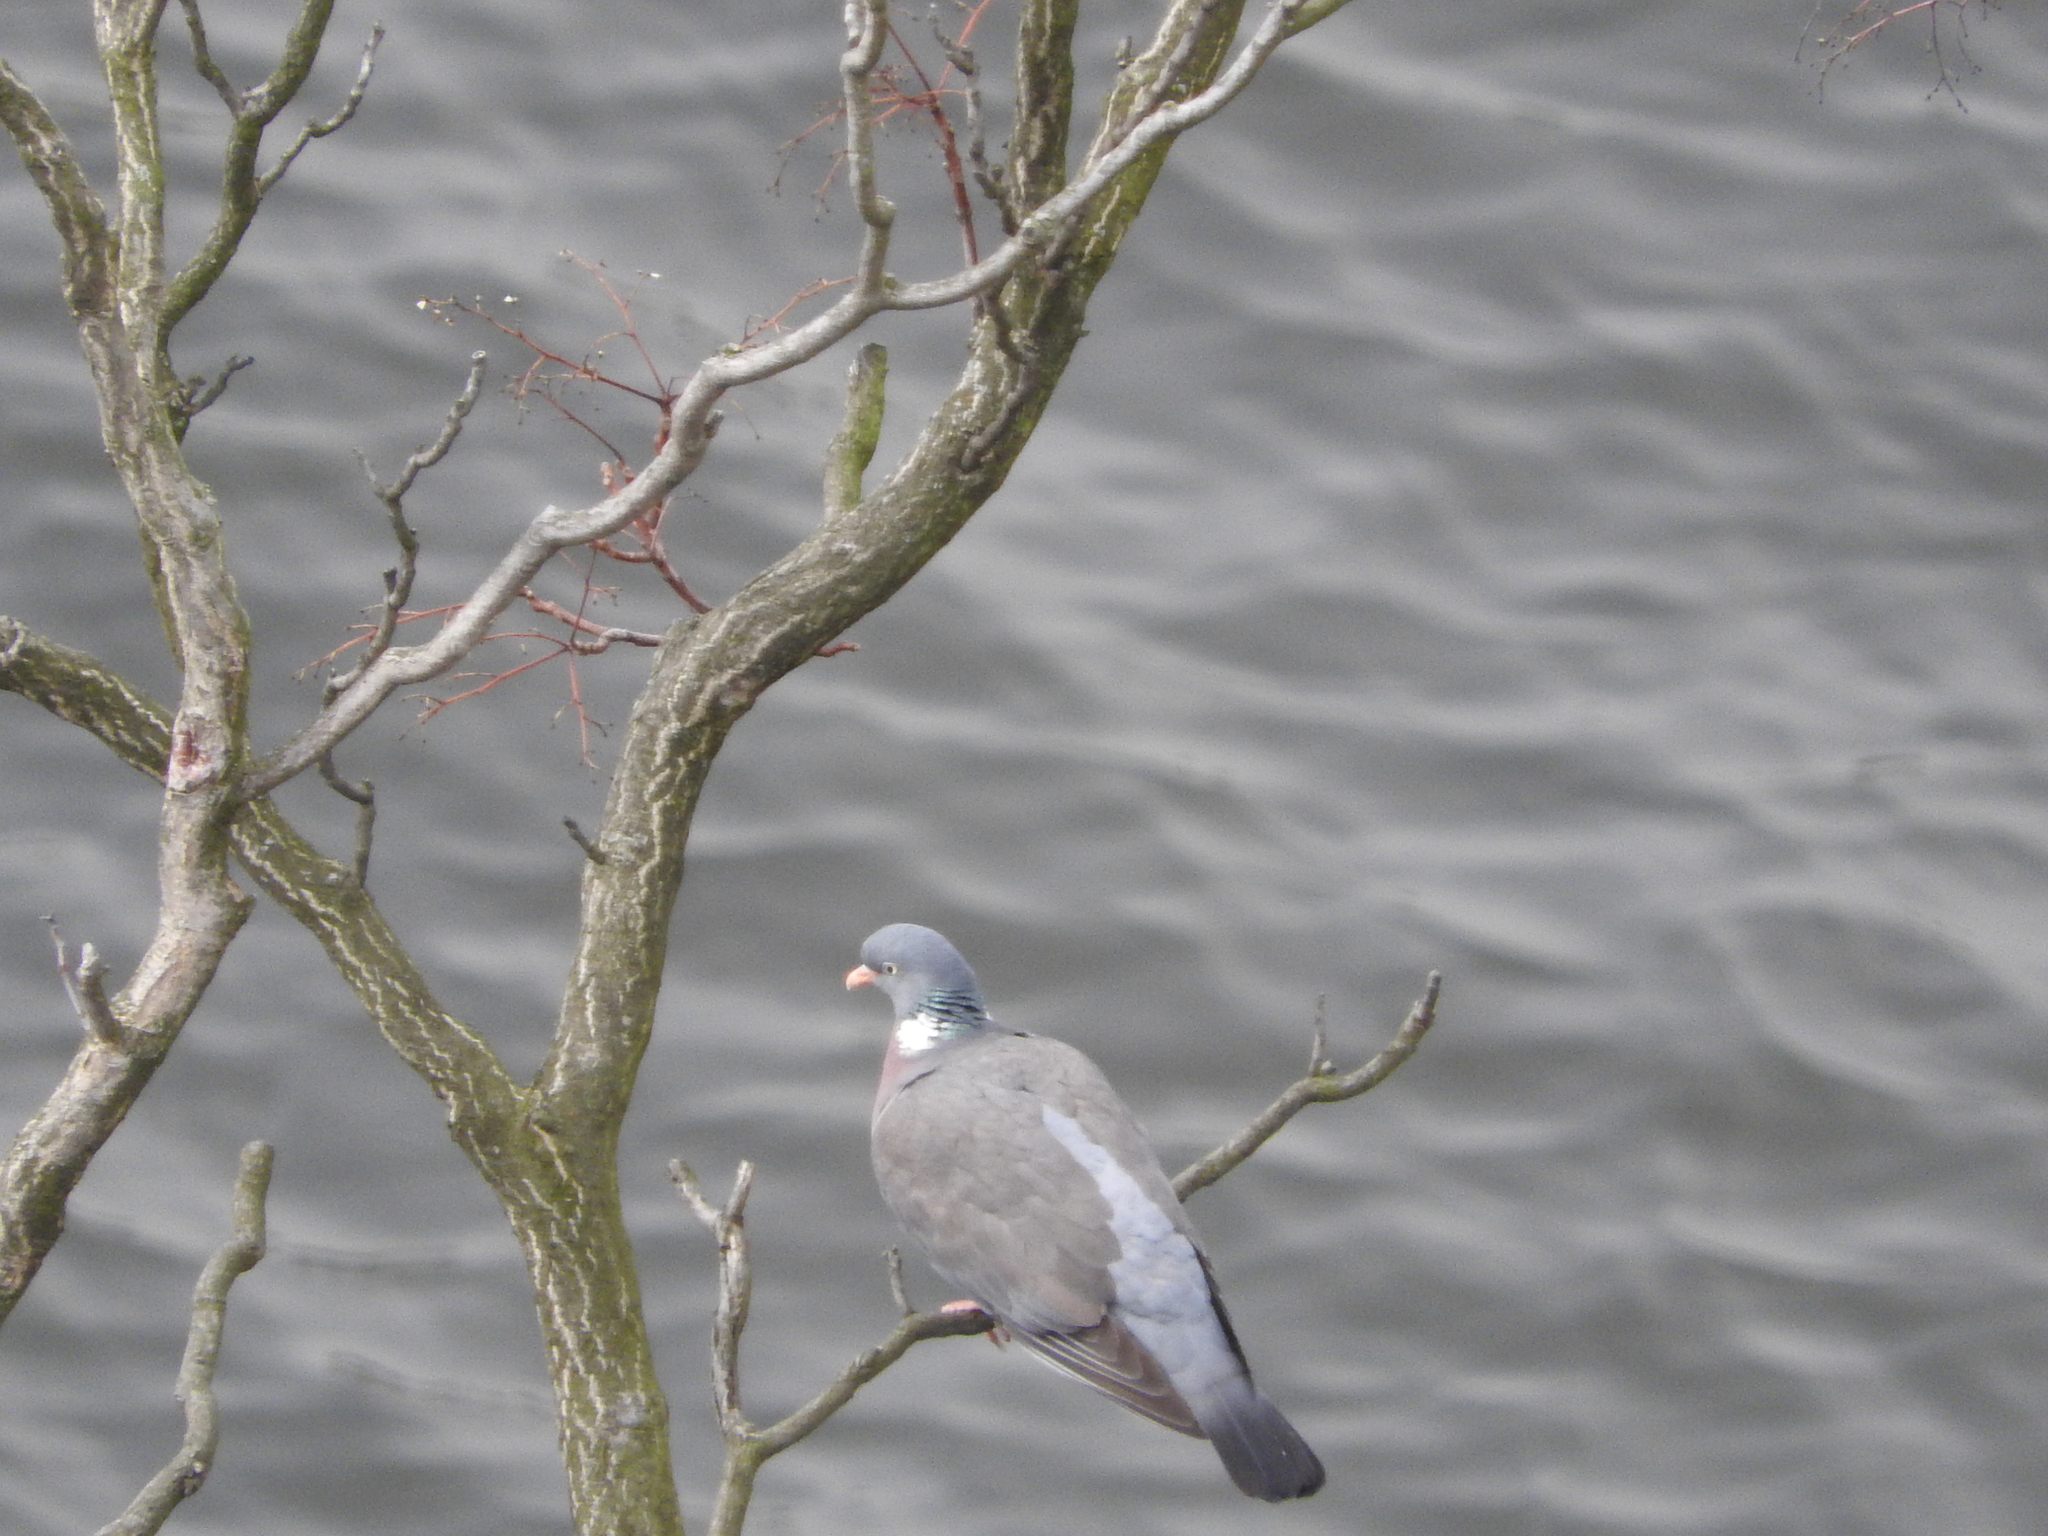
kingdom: Animalia
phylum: Chordata
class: Aves
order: Columbiformes
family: Columbidae
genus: Columba
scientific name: Columba palumbus
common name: Common wood pigeon
